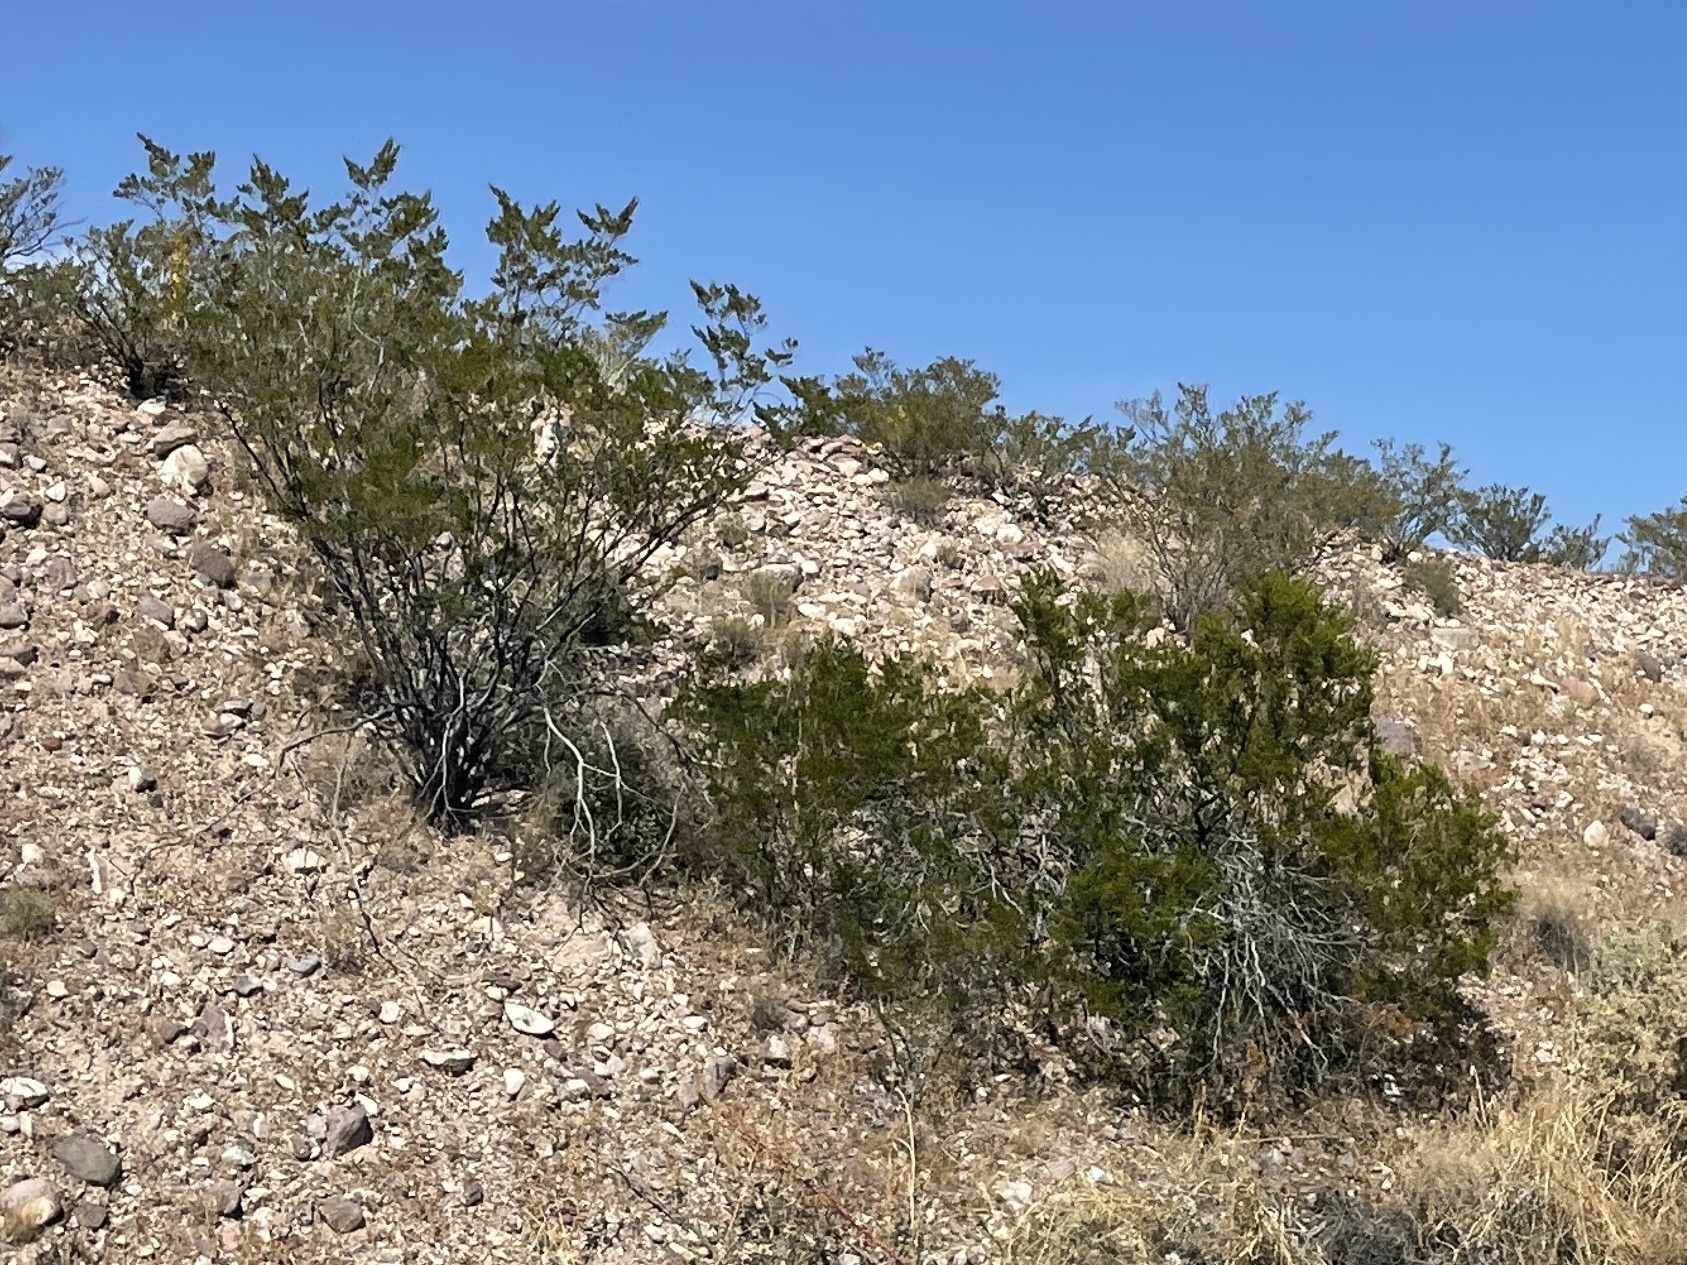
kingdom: Plantae
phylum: Tracheophyta
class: Magnoliopsida
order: Zygophyllales
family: Zygophyllaceae
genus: Larrea
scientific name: Larrea tridentata
